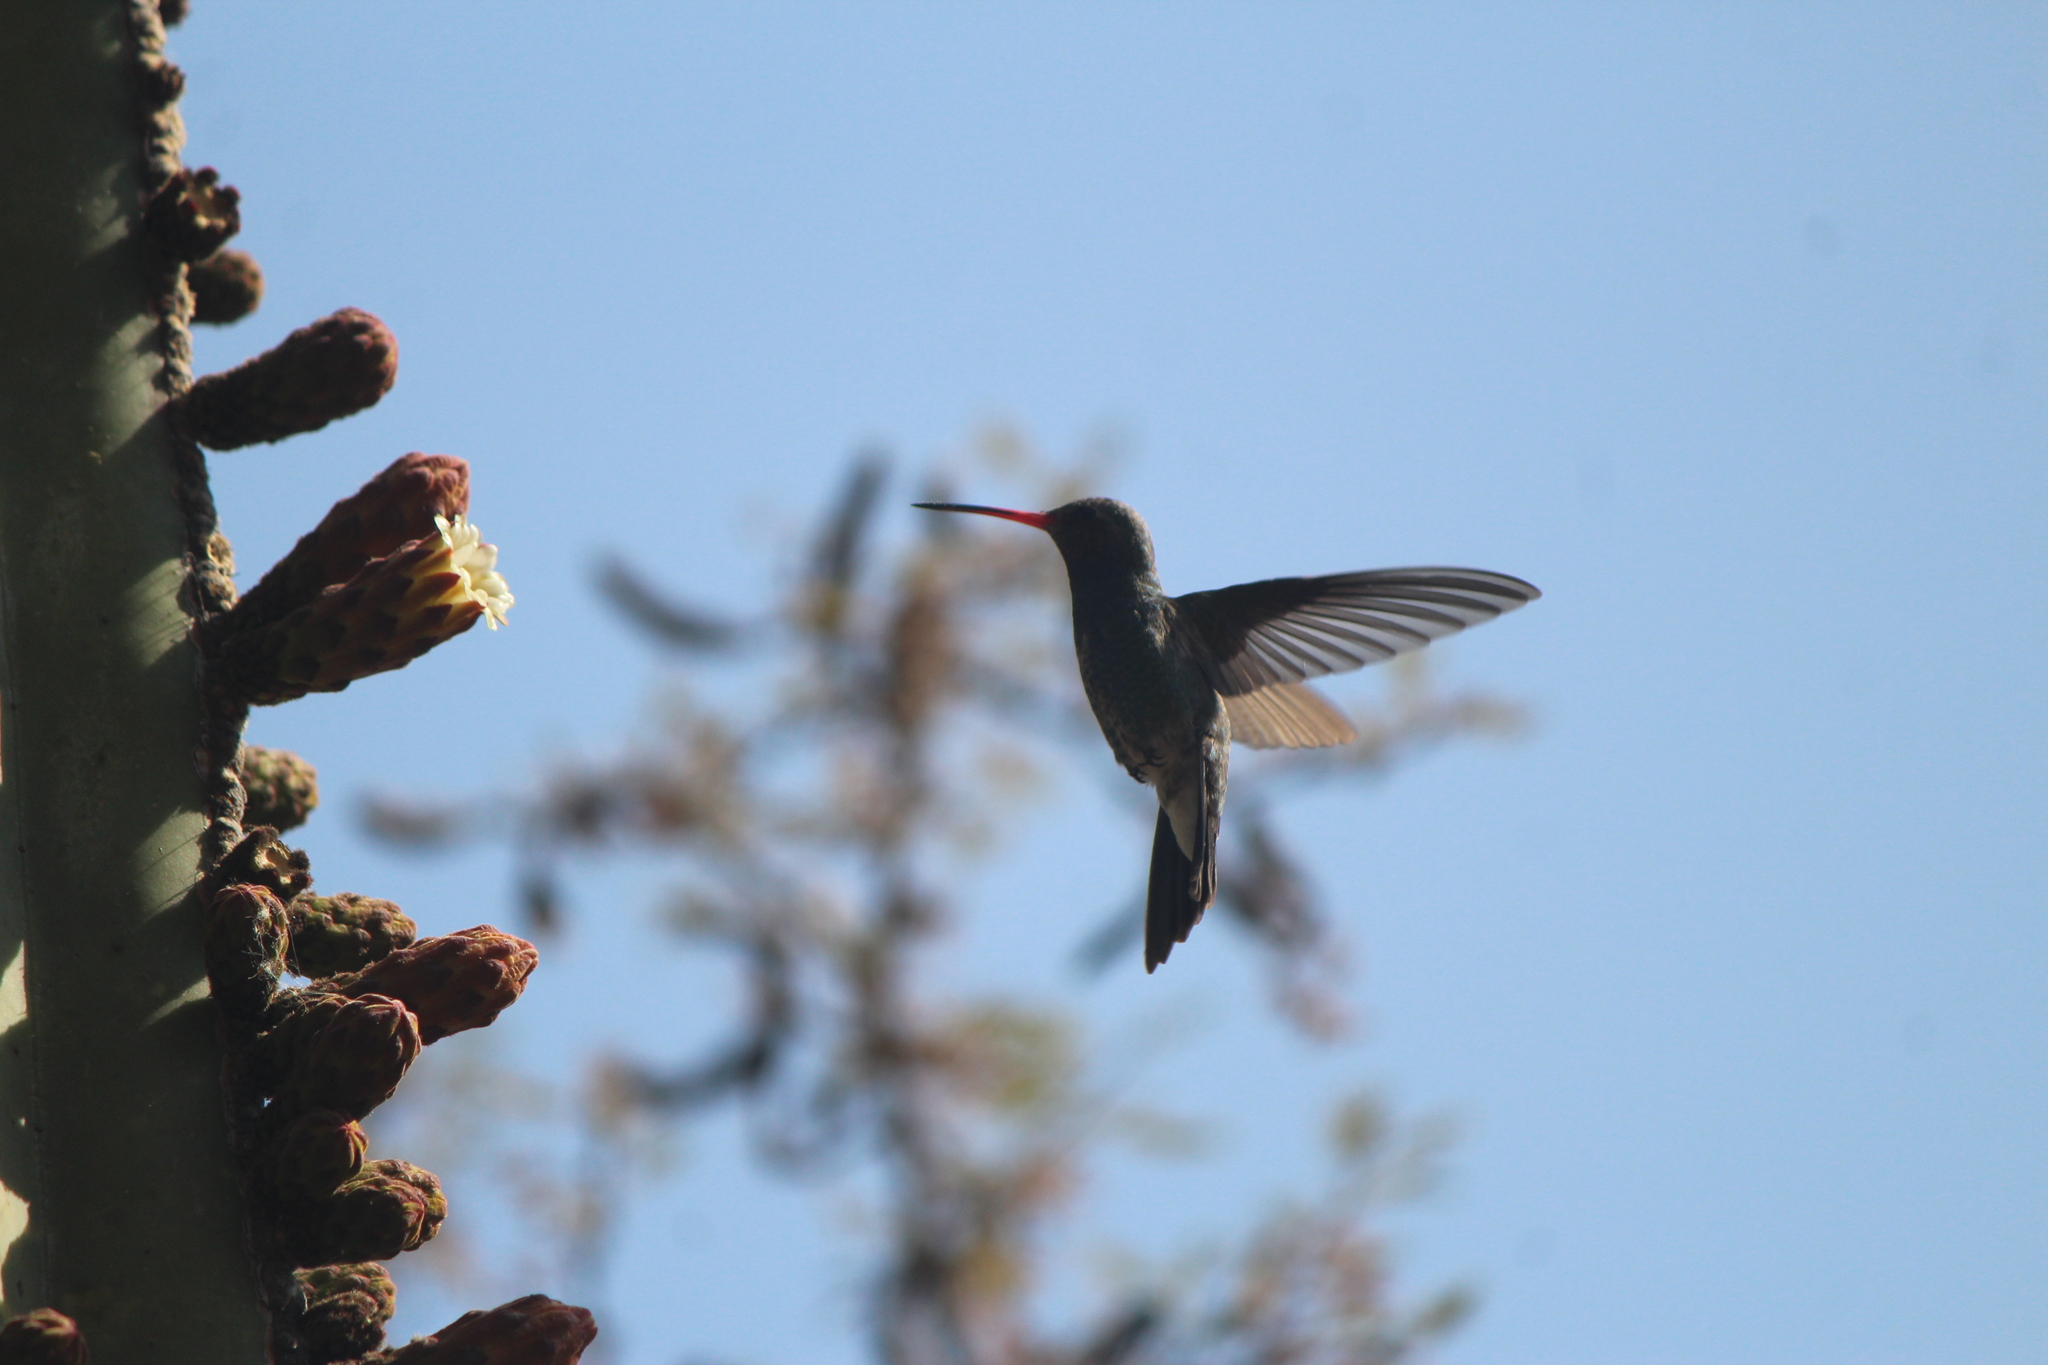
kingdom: Animalia
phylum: Chordata
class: Aves
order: Apodiformes
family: Trochilidae
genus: Cynanthus
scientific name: Cynanthus latirostris
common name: Broad-billed hummingbird
